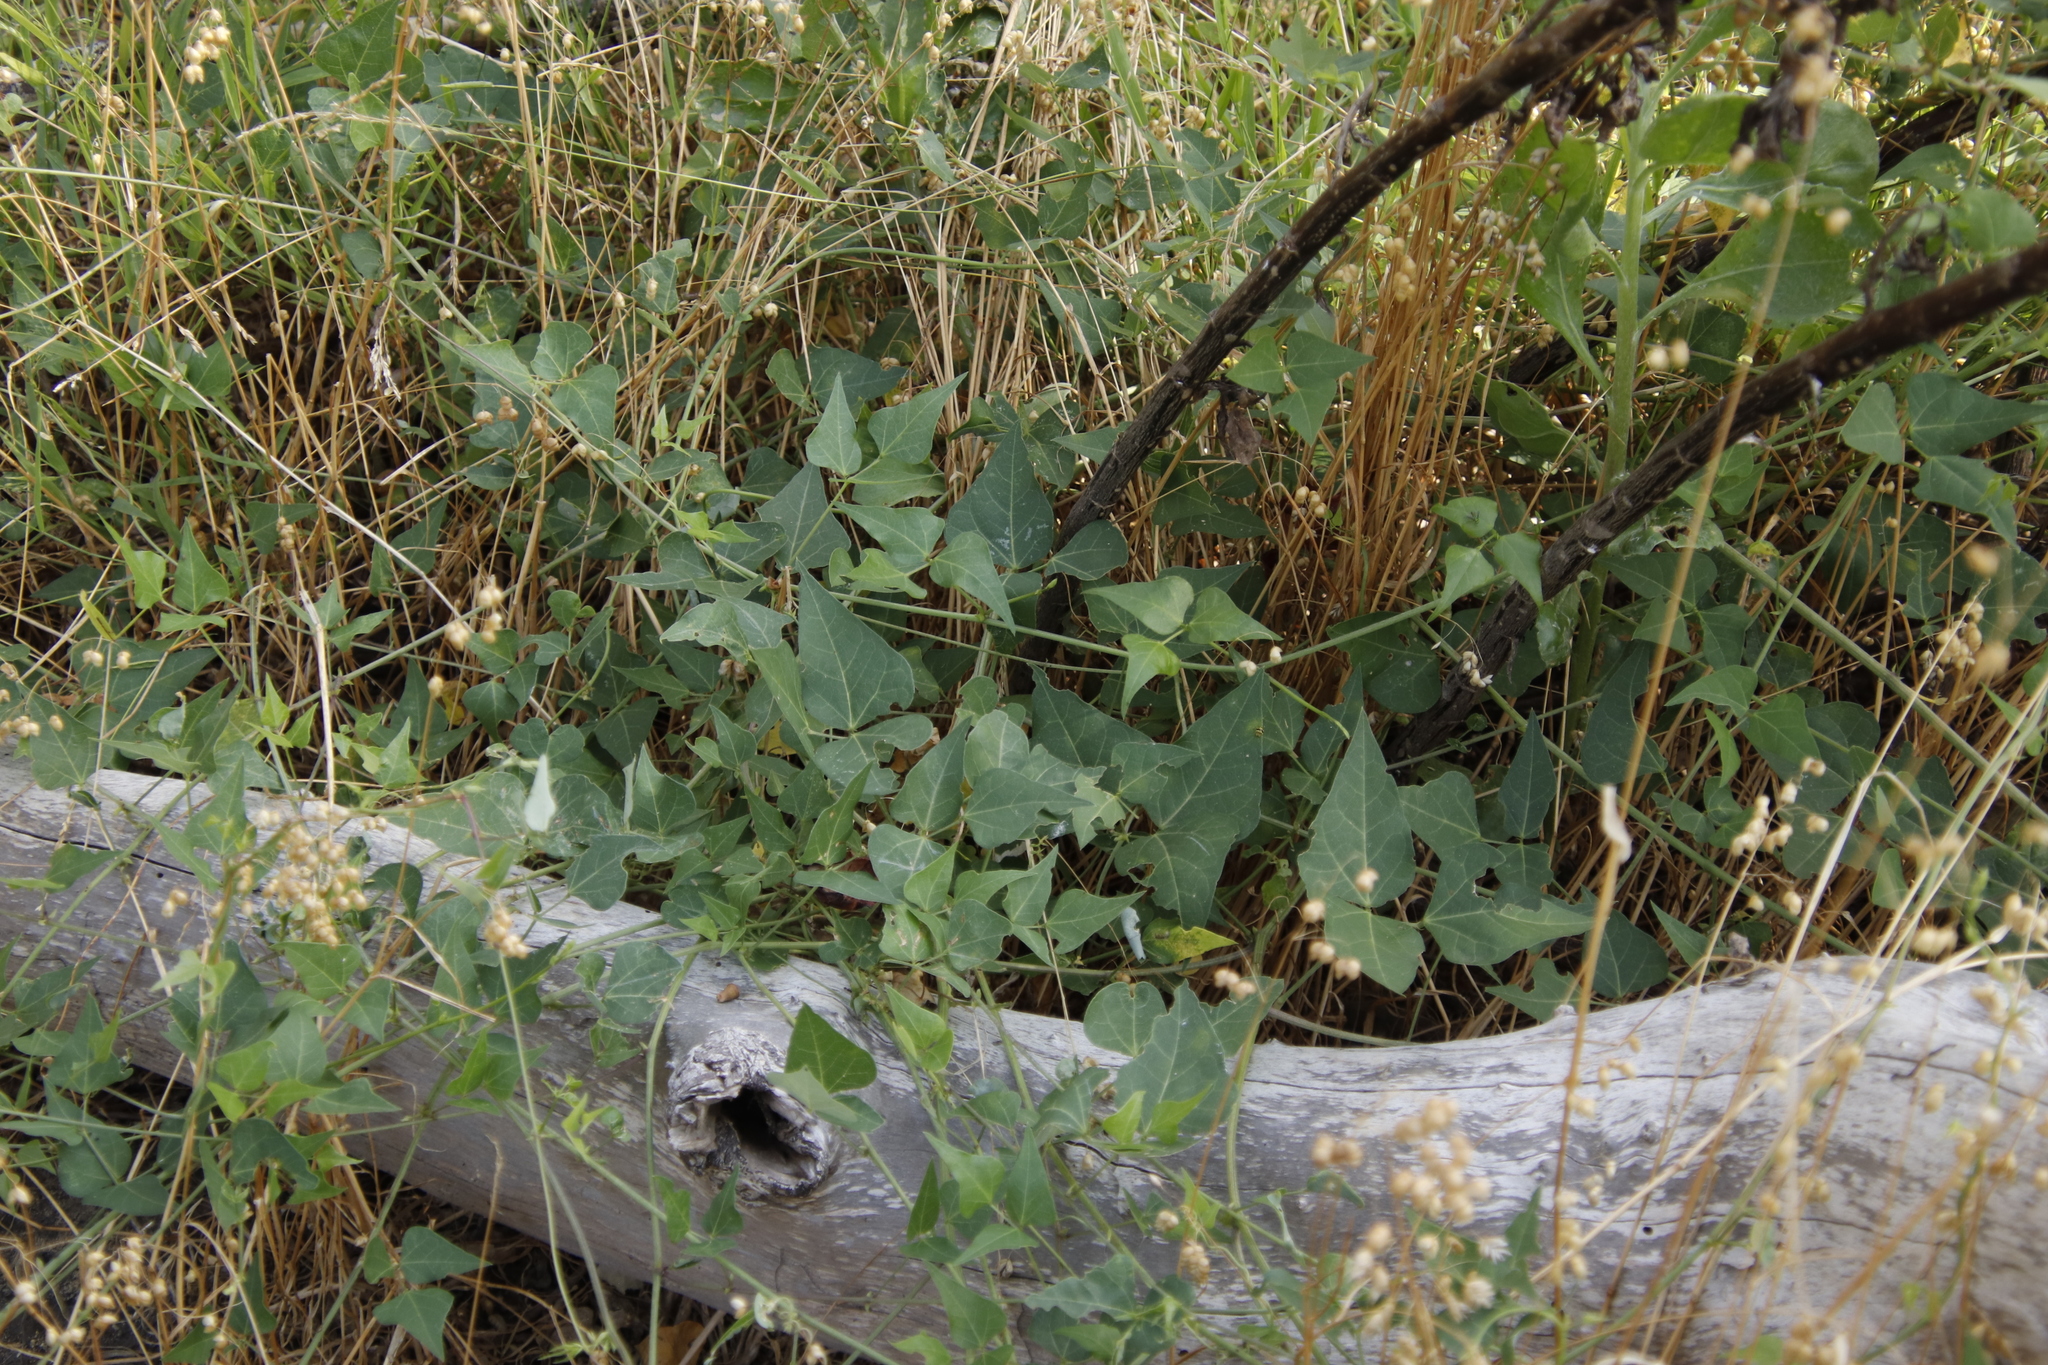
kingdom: Plantae
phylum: Tracheophyta
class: Magnoliopsida
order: Fabales
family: Fabaceae
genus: Dipogon
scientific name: Dipogon lignosus
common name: Okie bean
